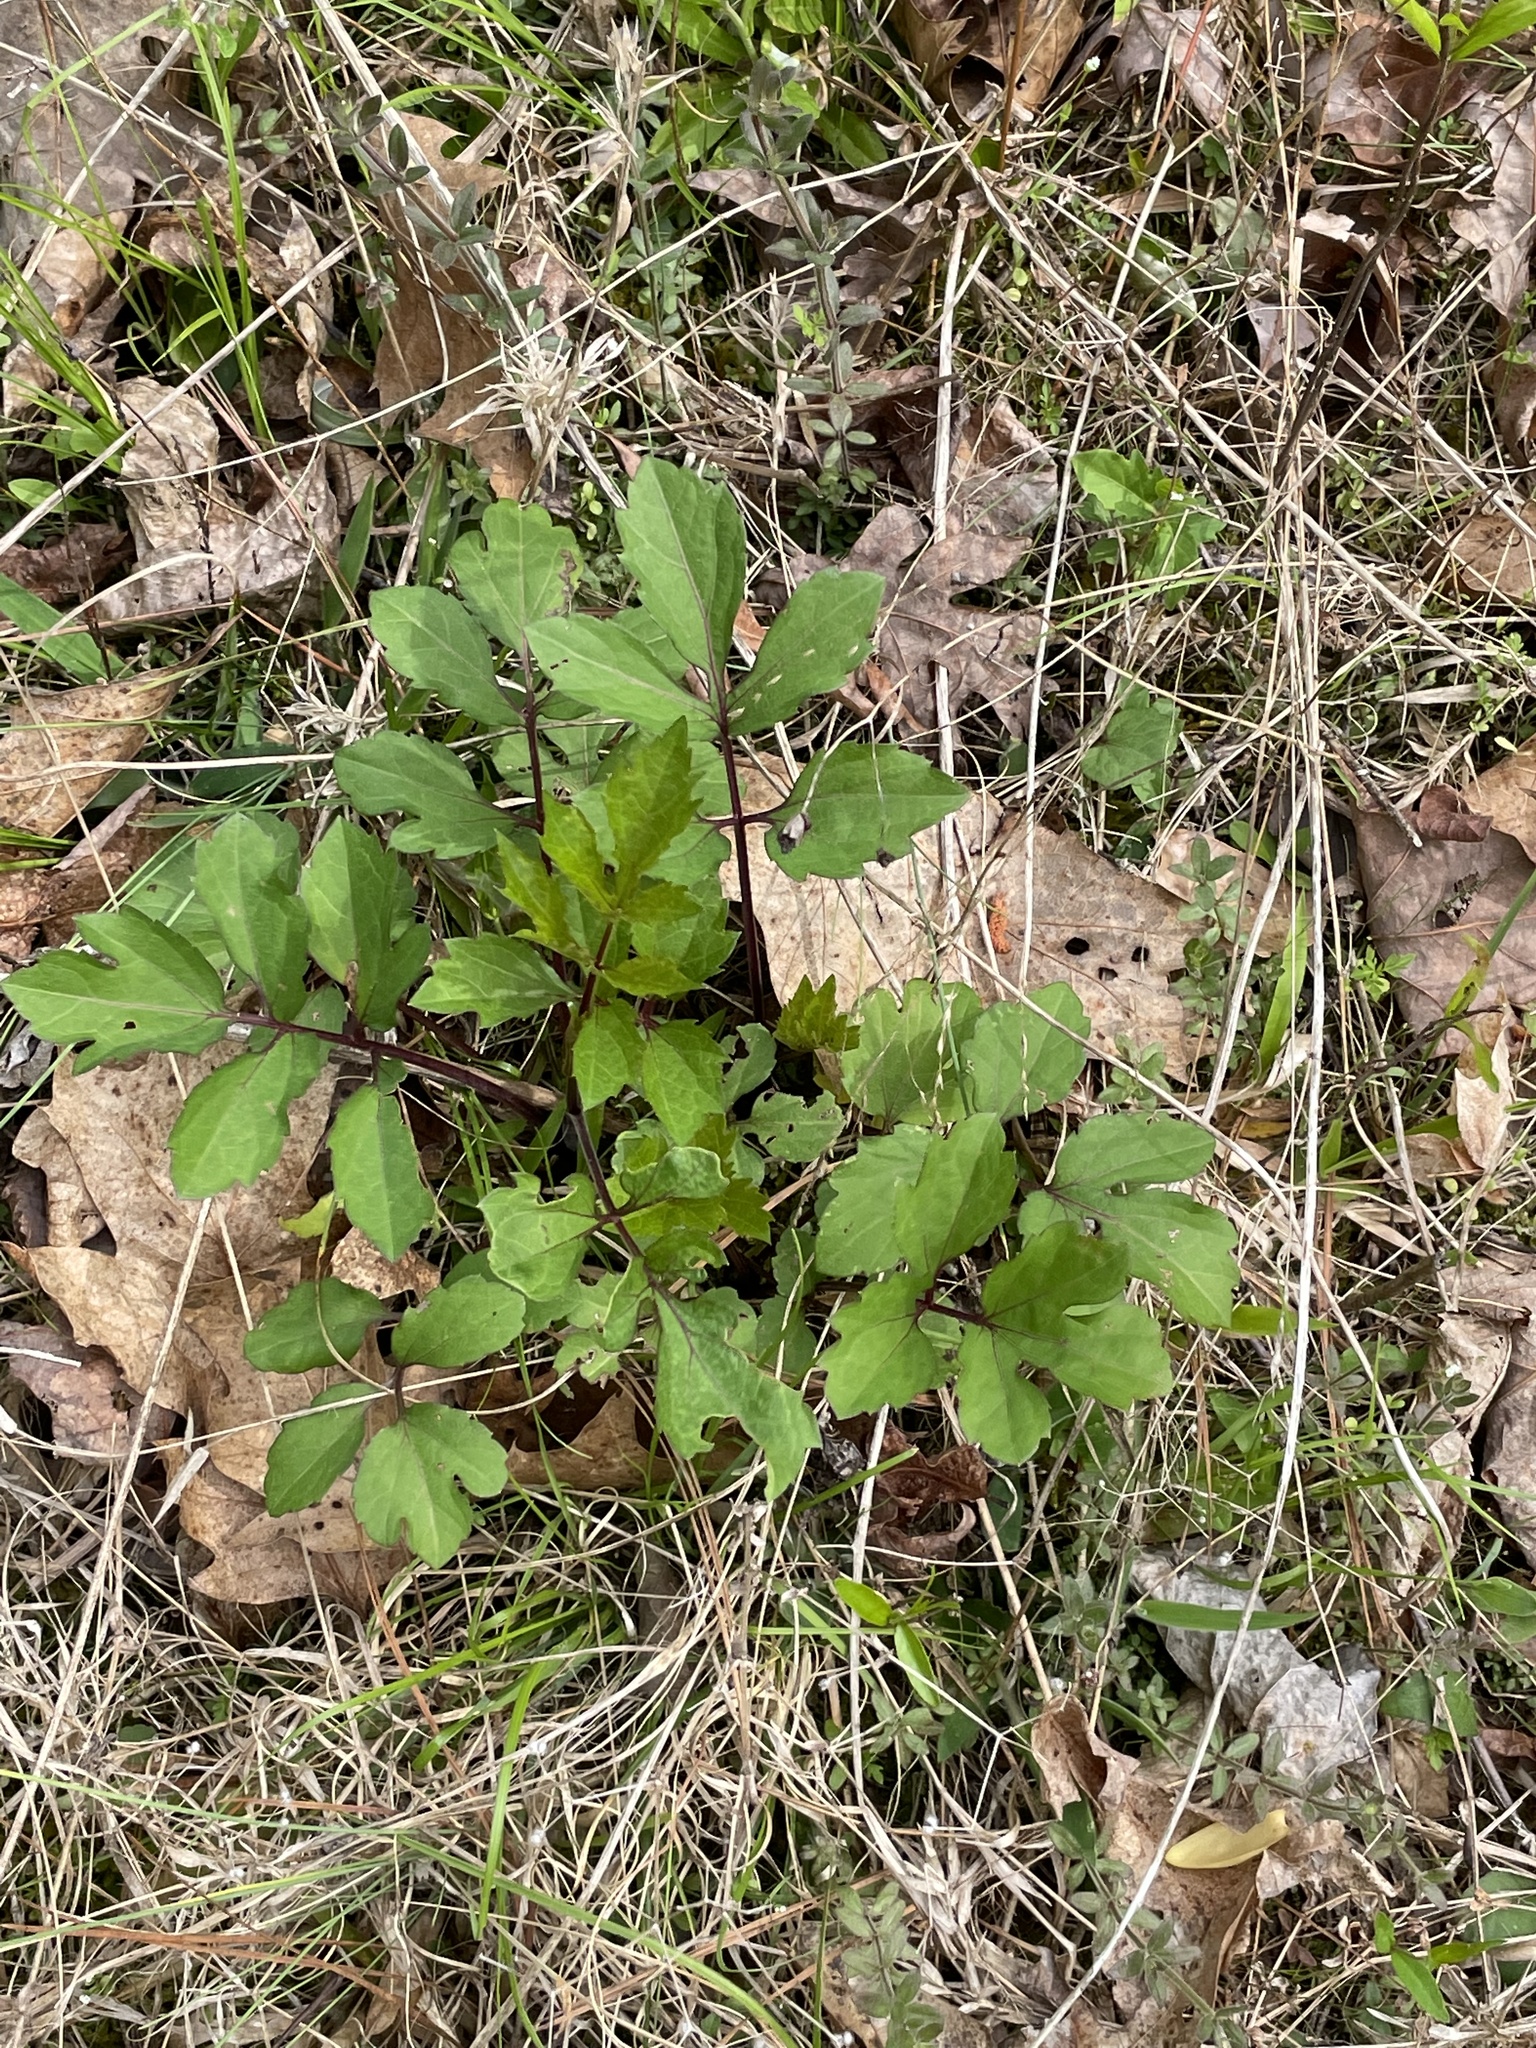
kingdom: Plantae
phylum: Tracheophyta
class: Magnoliopsida
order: Asterales
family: Asteraceae
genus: Rudbeckia
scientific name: Rudbeckia laciniata
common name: Coneflower
